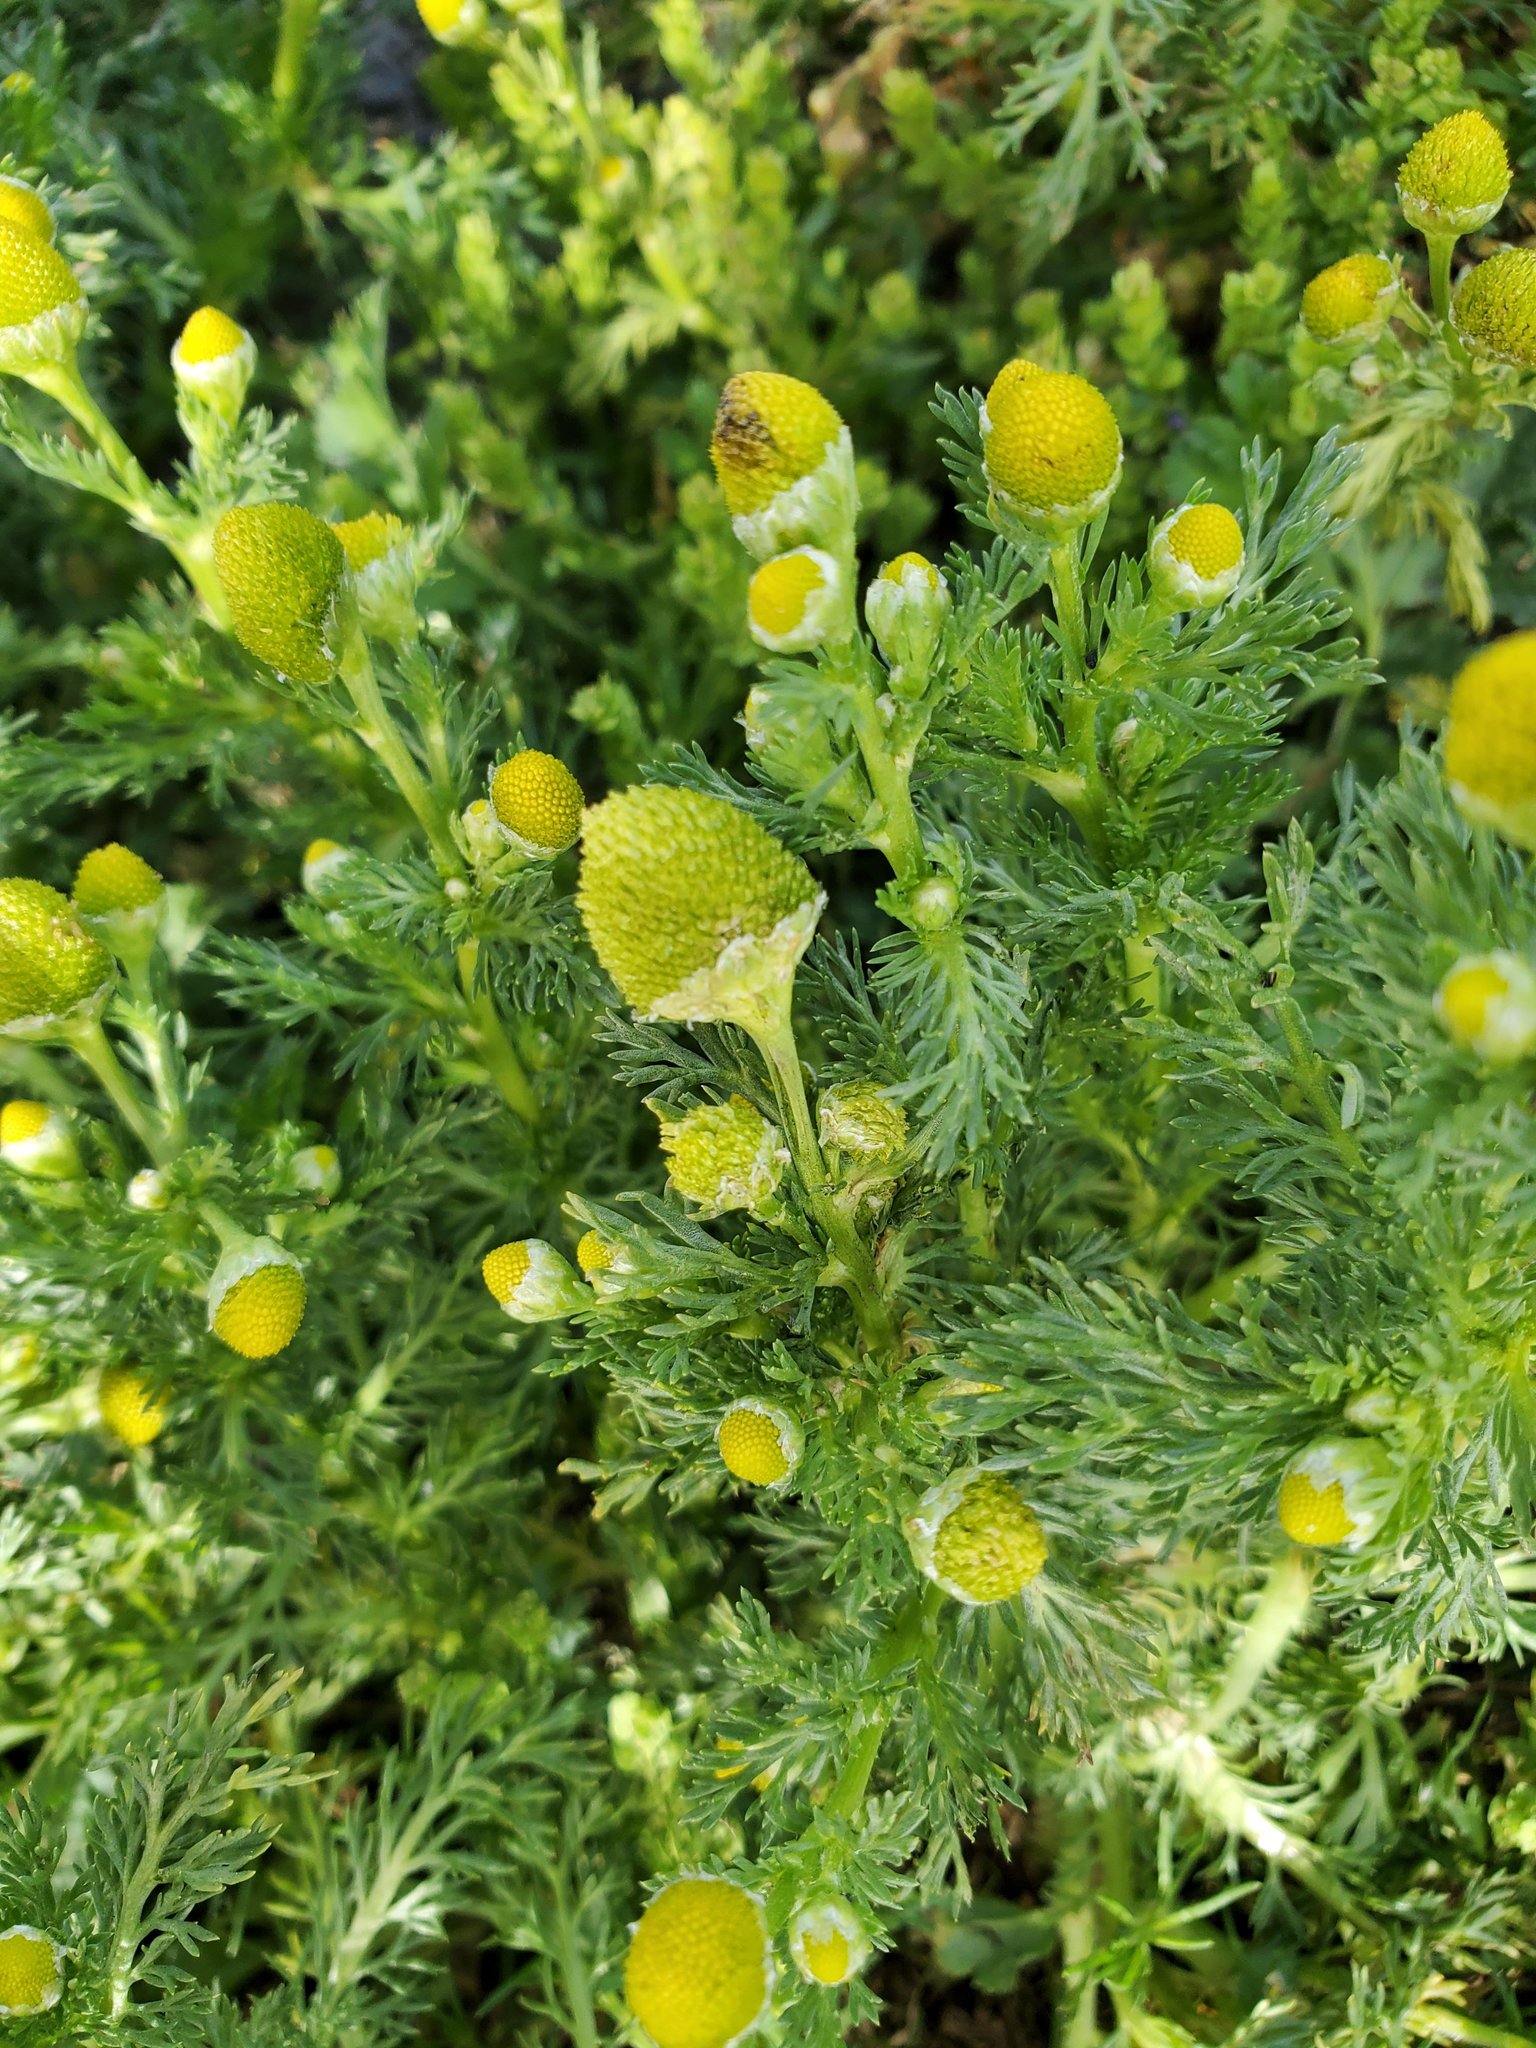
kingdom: Plantae
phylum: Tracheophyta
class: Magnoliopsida
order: Asterales
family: Asteraceae
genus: Matricaria
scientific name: Matricaria discoidea
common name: Disc mayweed
